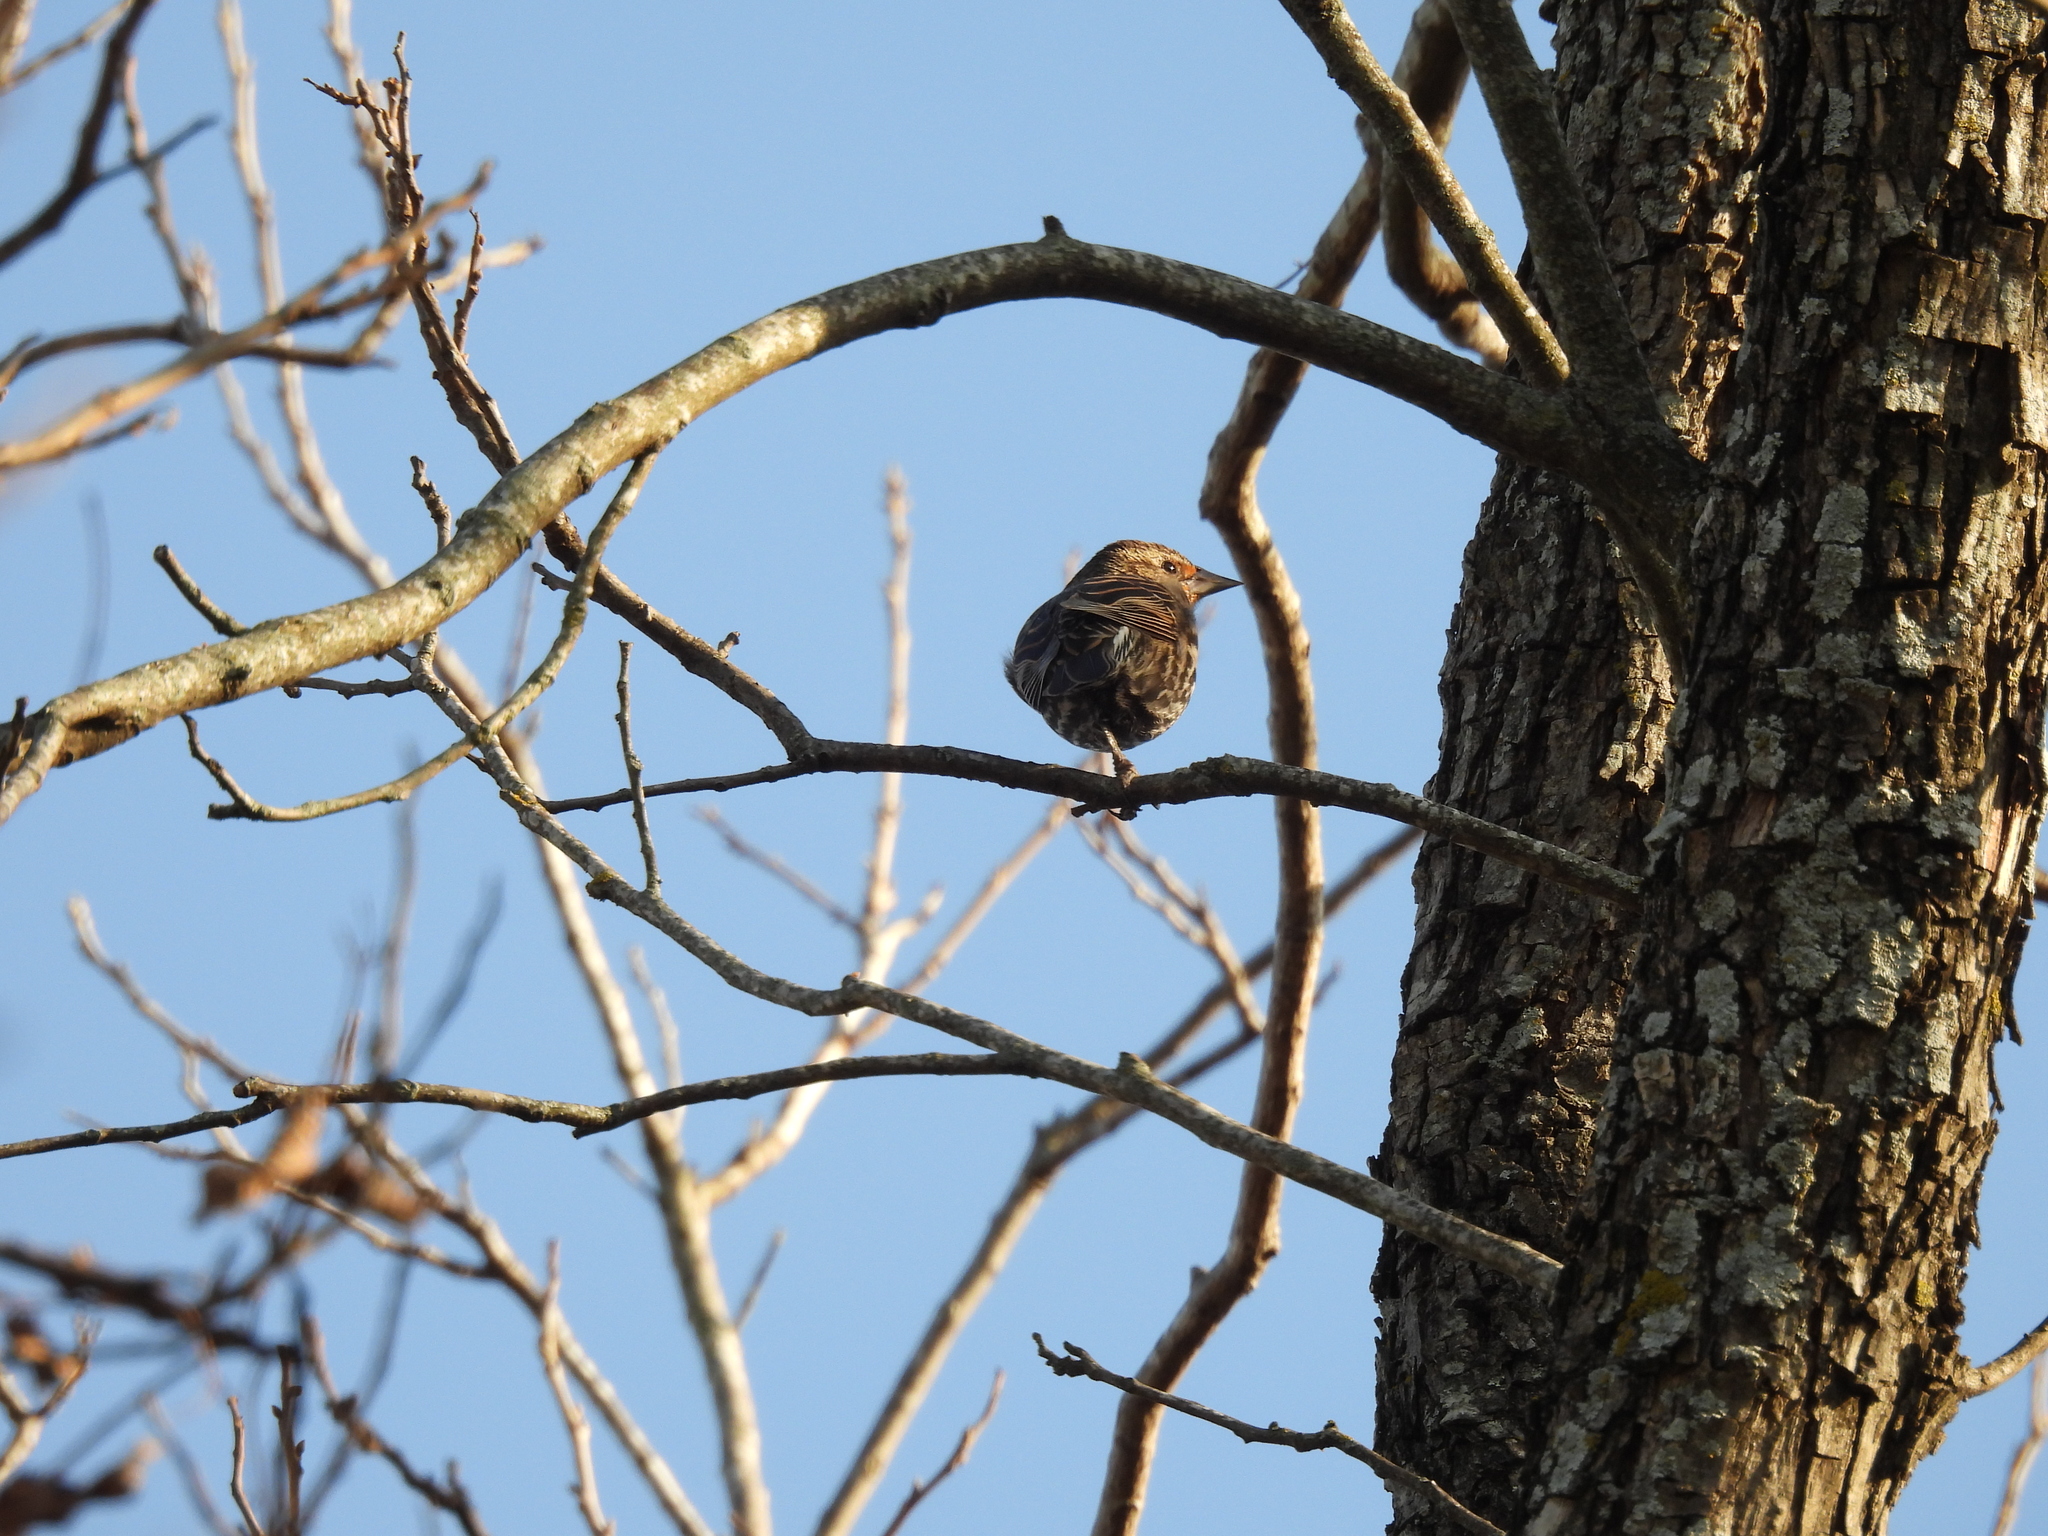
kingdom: Animalia
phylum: Chordata
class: Aves
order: Passeriformes
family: Icteridae
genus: Agelaius
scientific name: Agelaius phoeniceus
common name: Red-winged blackbird
